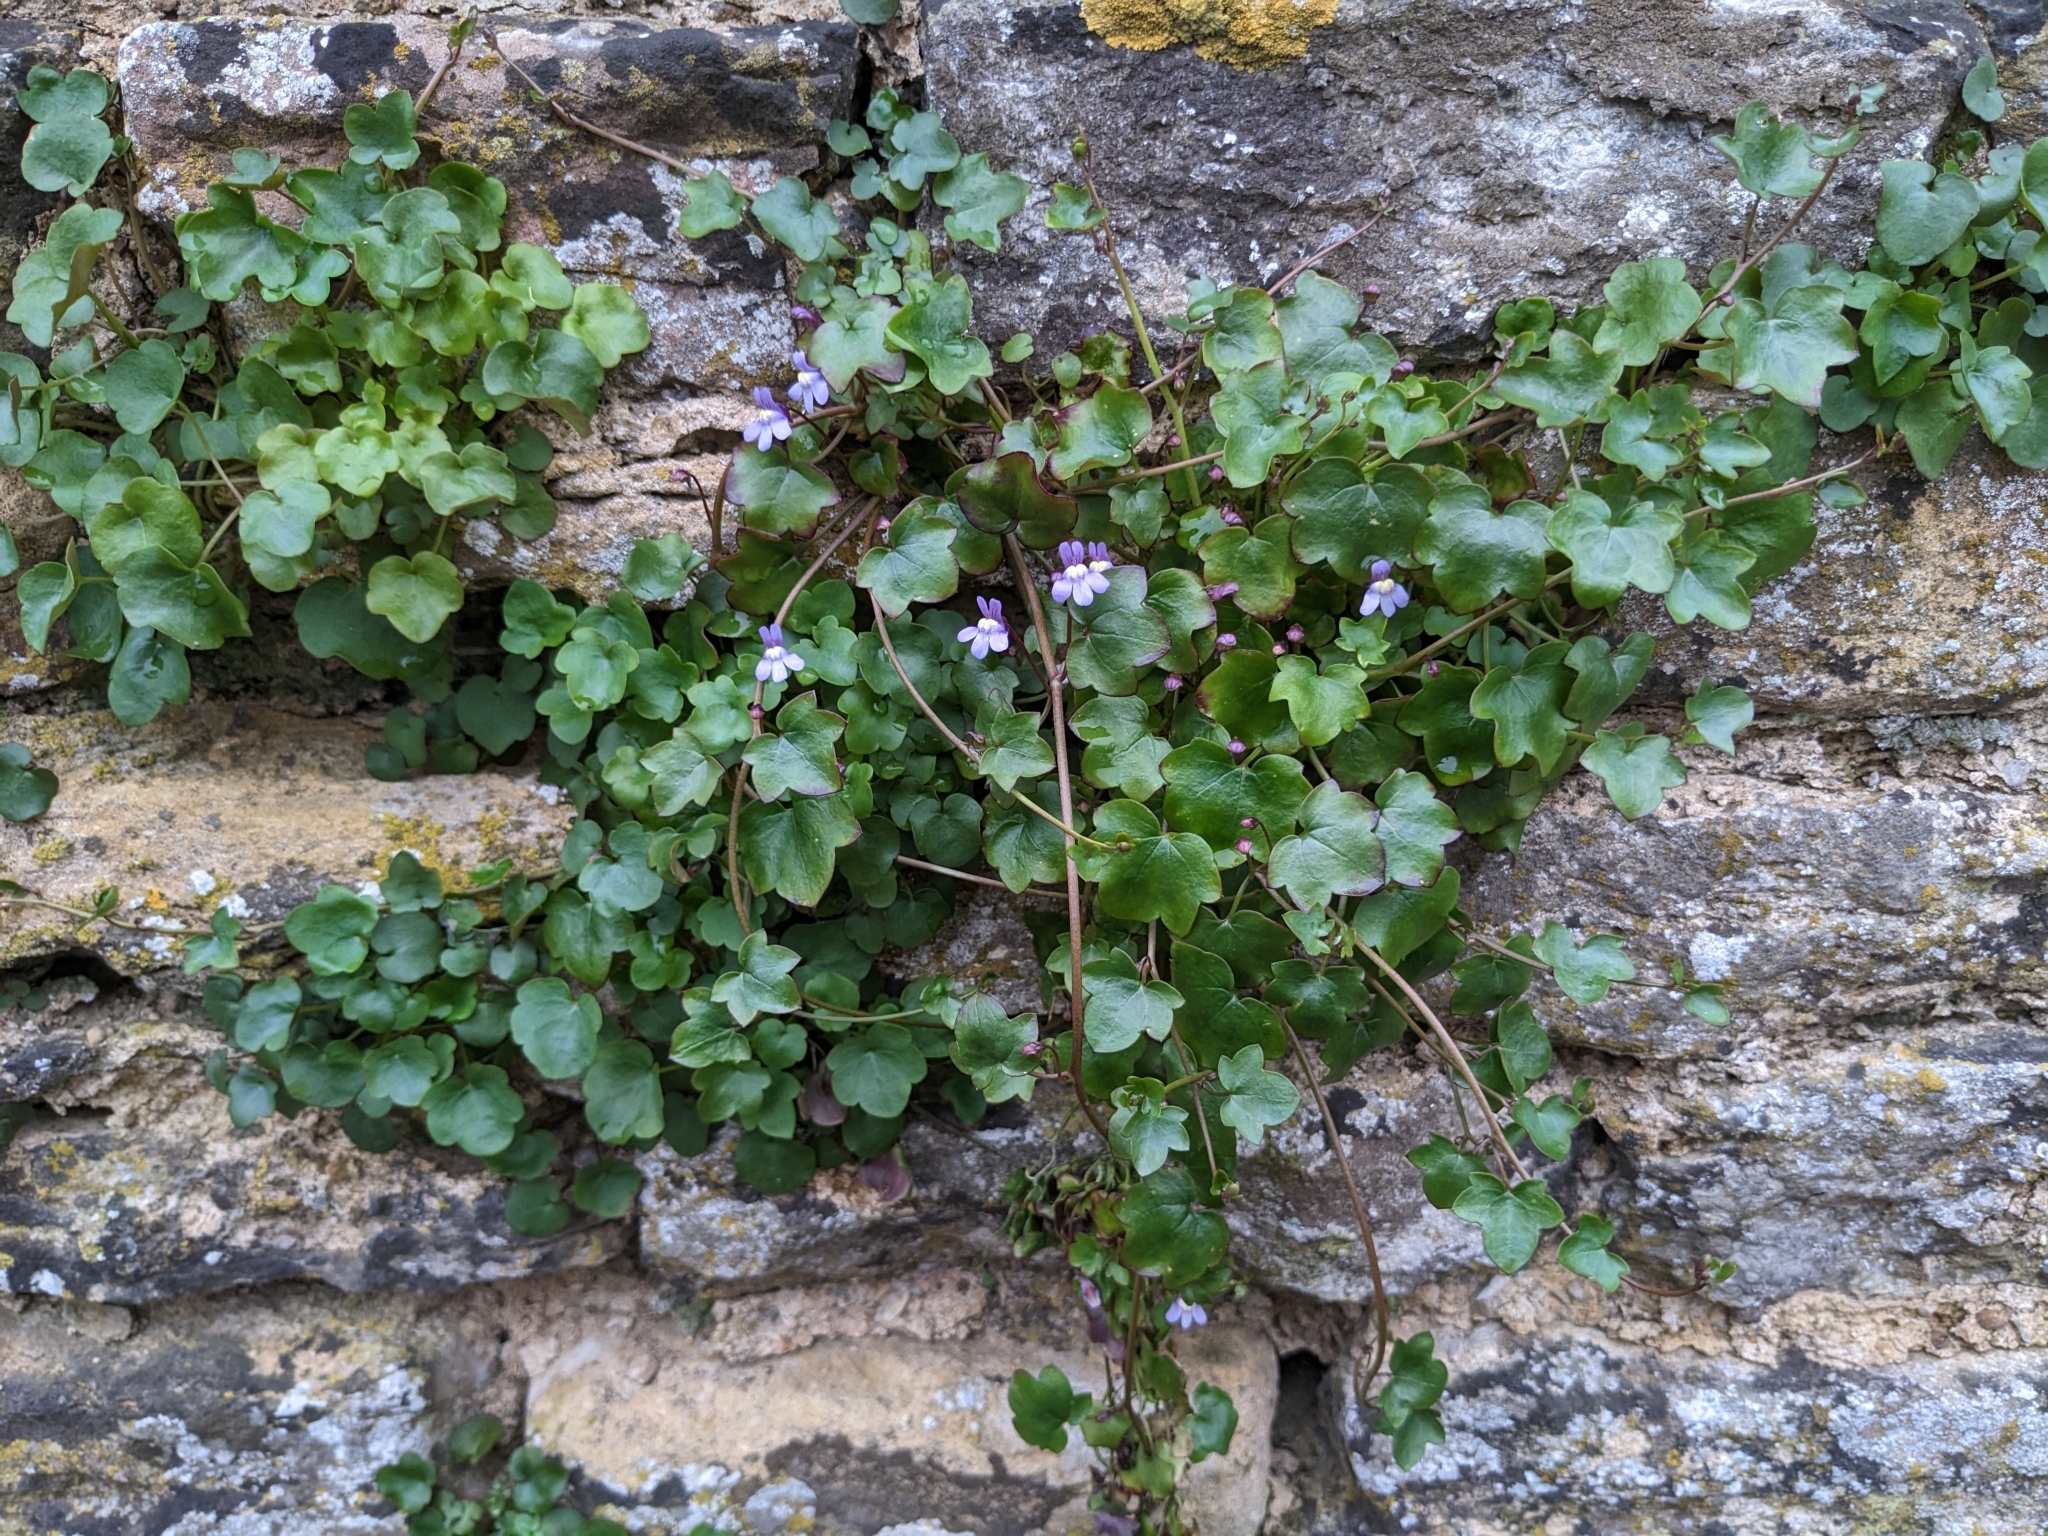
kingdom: Plantae
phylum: Tracheophyta
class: Magnoliopsida
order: Lamiales
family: Plantaginaceae
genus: Cymbalaria
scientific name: Cymbalaria muralis
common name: Ivy-leaved toadflax
